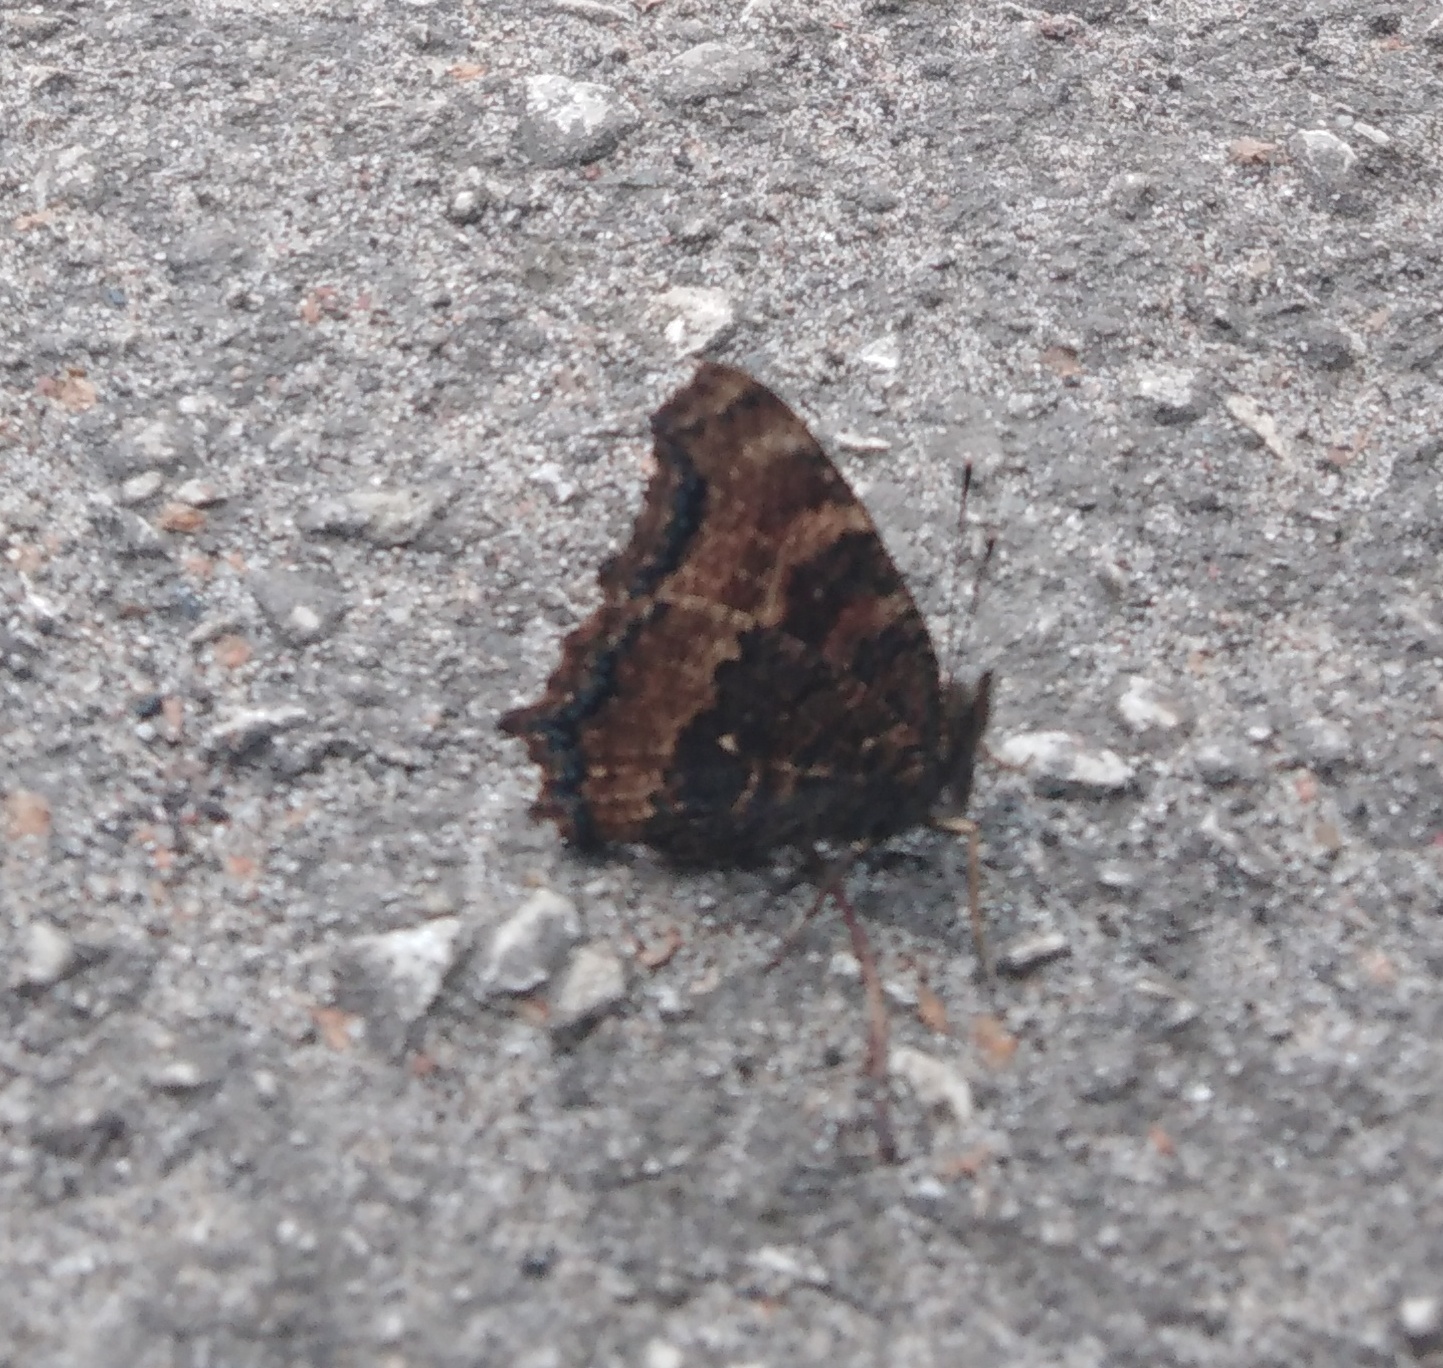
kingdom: Animalia
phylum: Arthropoda
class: Insecta
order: Lepidoptera
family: Nymphalidae
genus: Nymphalis
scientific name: Nymphalis xanthomelas
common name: Scarce tortoiseshell
